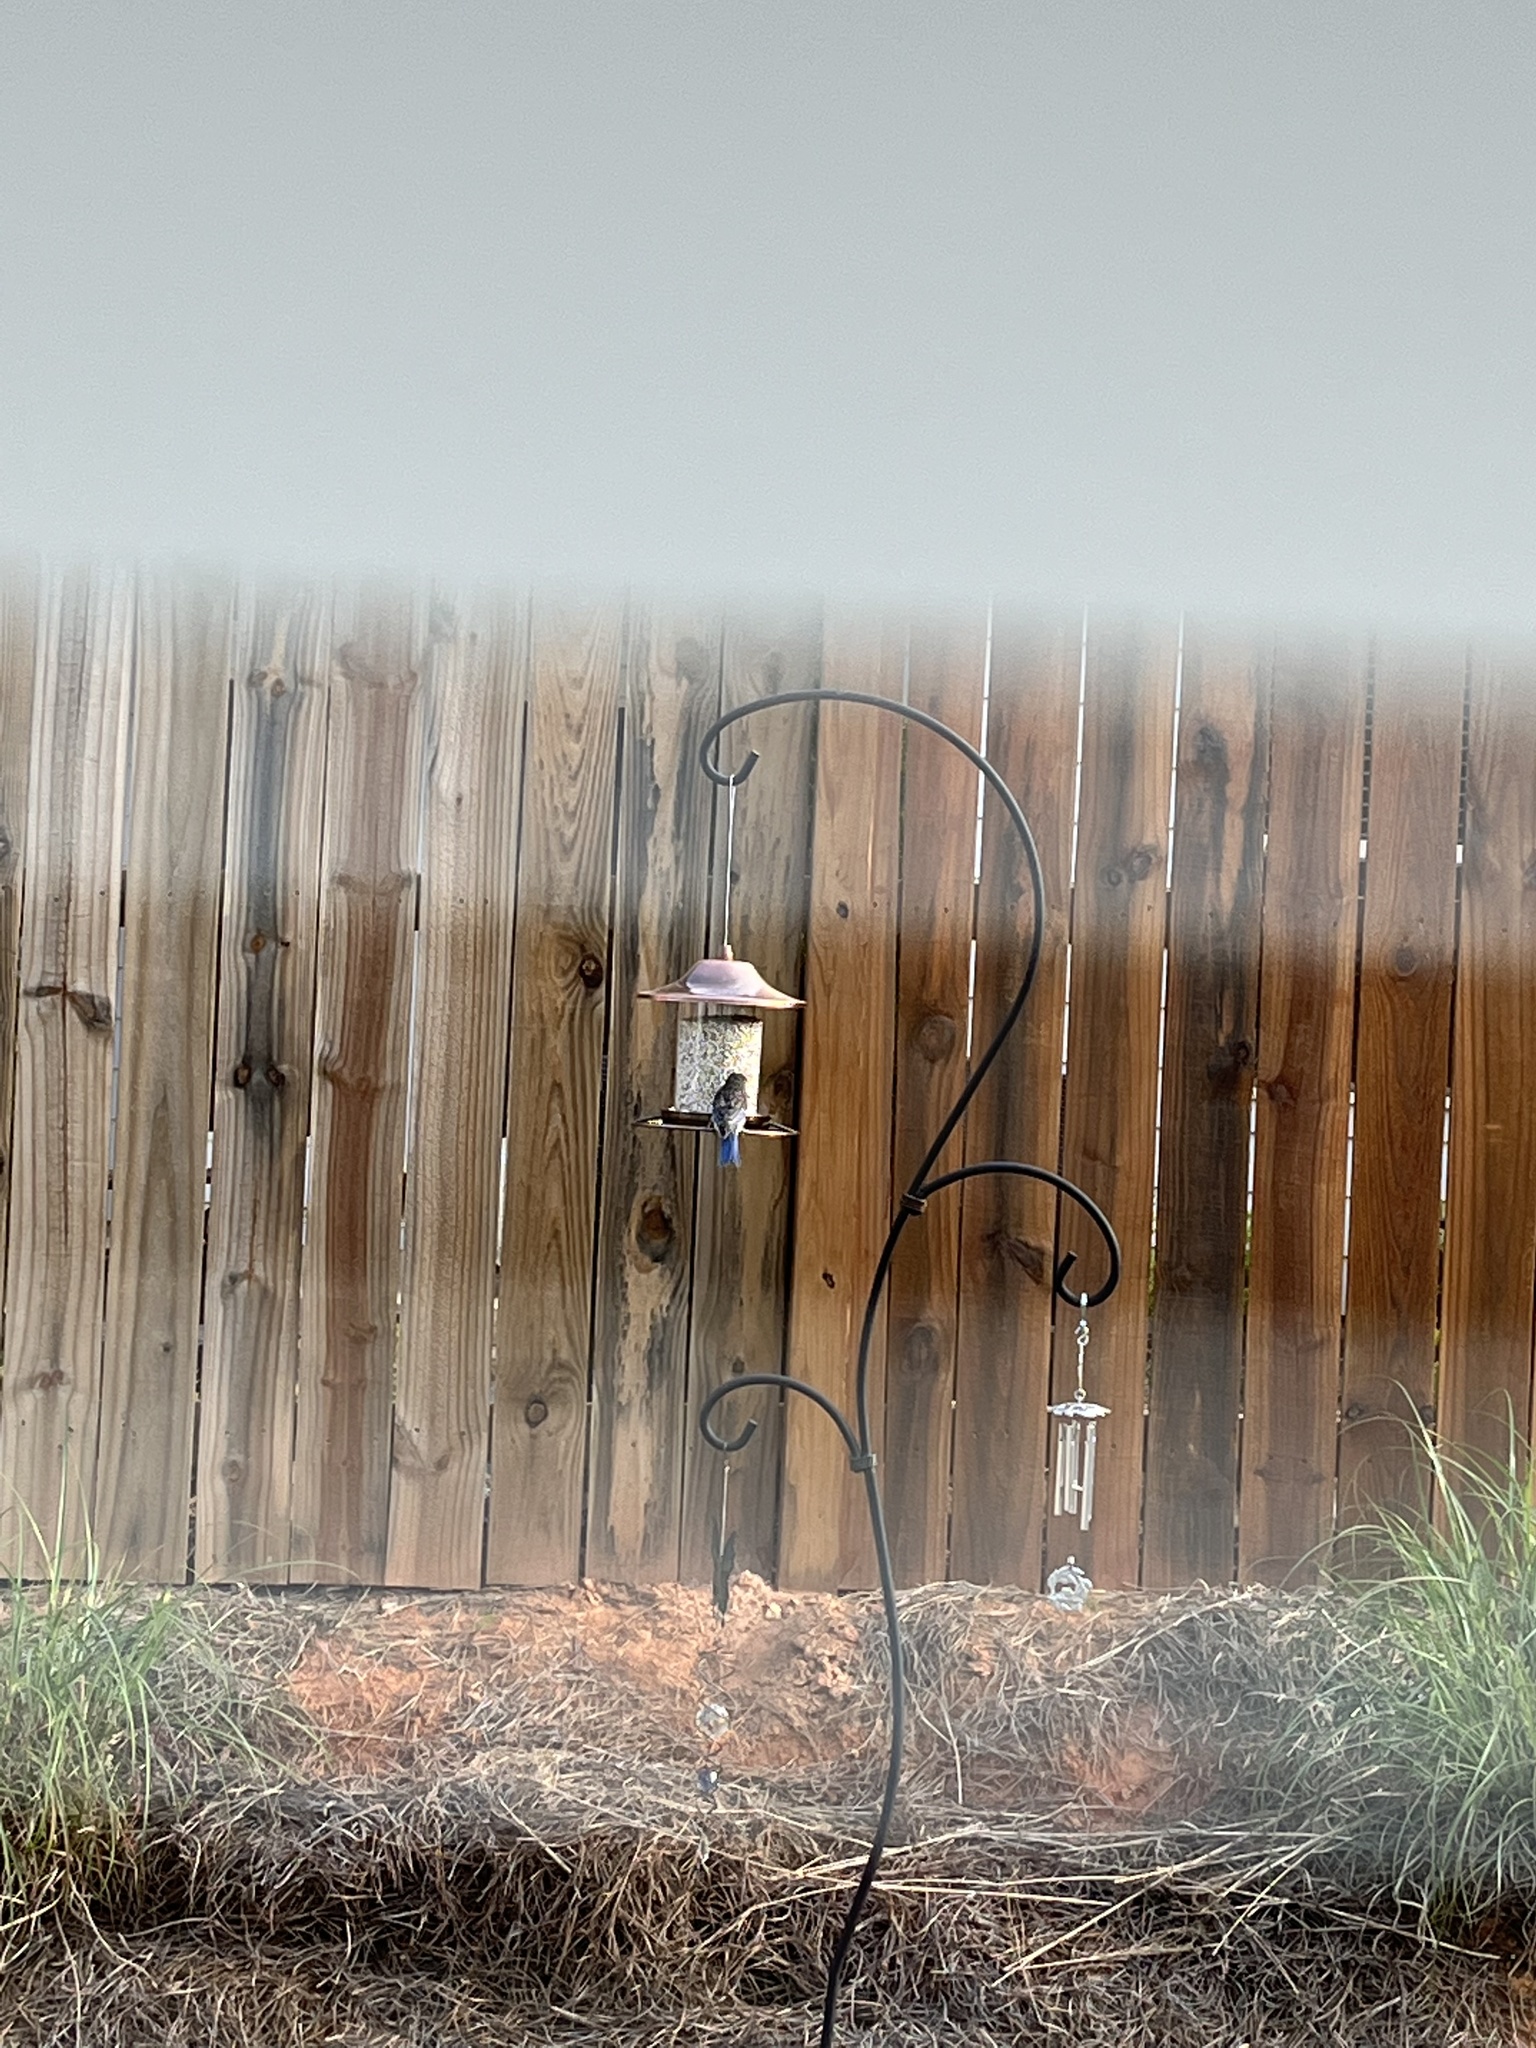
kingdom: Animalia
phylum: Chordata
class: Aves
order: Passeriformes
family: Turdidae
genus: Sialia
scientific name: Sialia sialis
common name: Eastern bluebird
